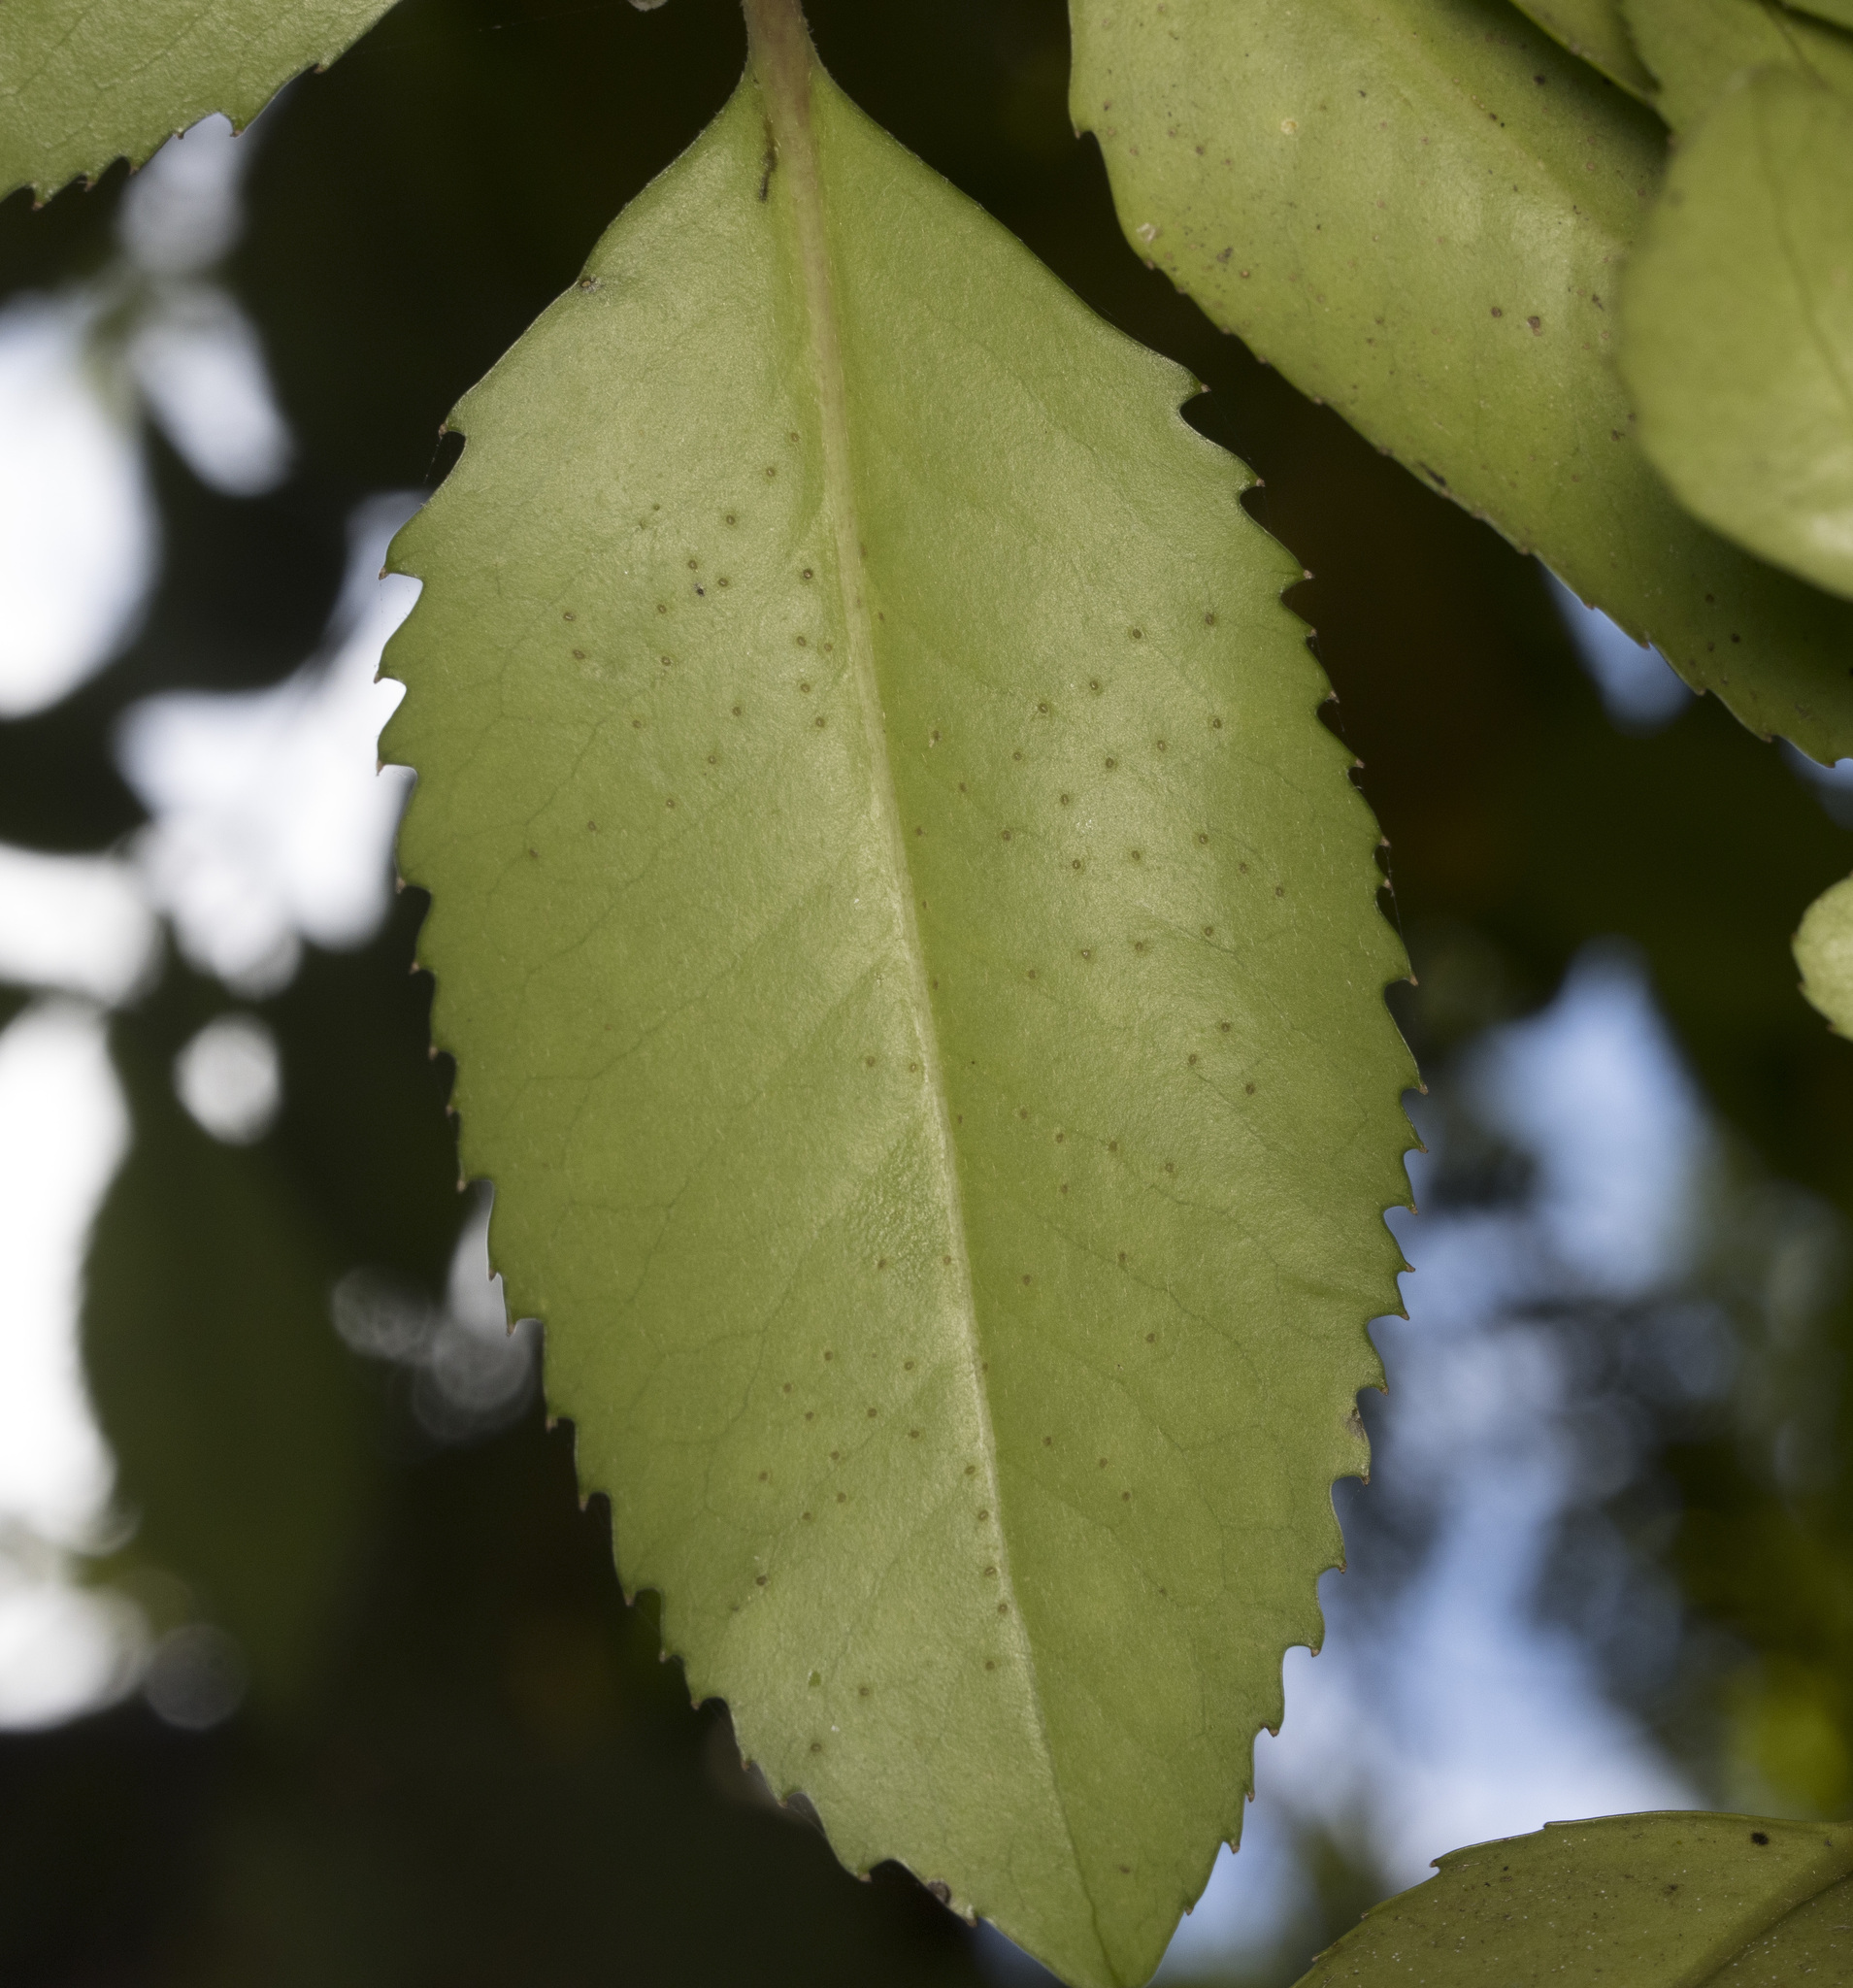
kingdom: Plantae
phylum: Tracheophyta
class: Magnoliopsida
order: Laurales
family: Atherospermataceae
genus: Laureliopsis
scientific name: Laureliopsis philippiana
